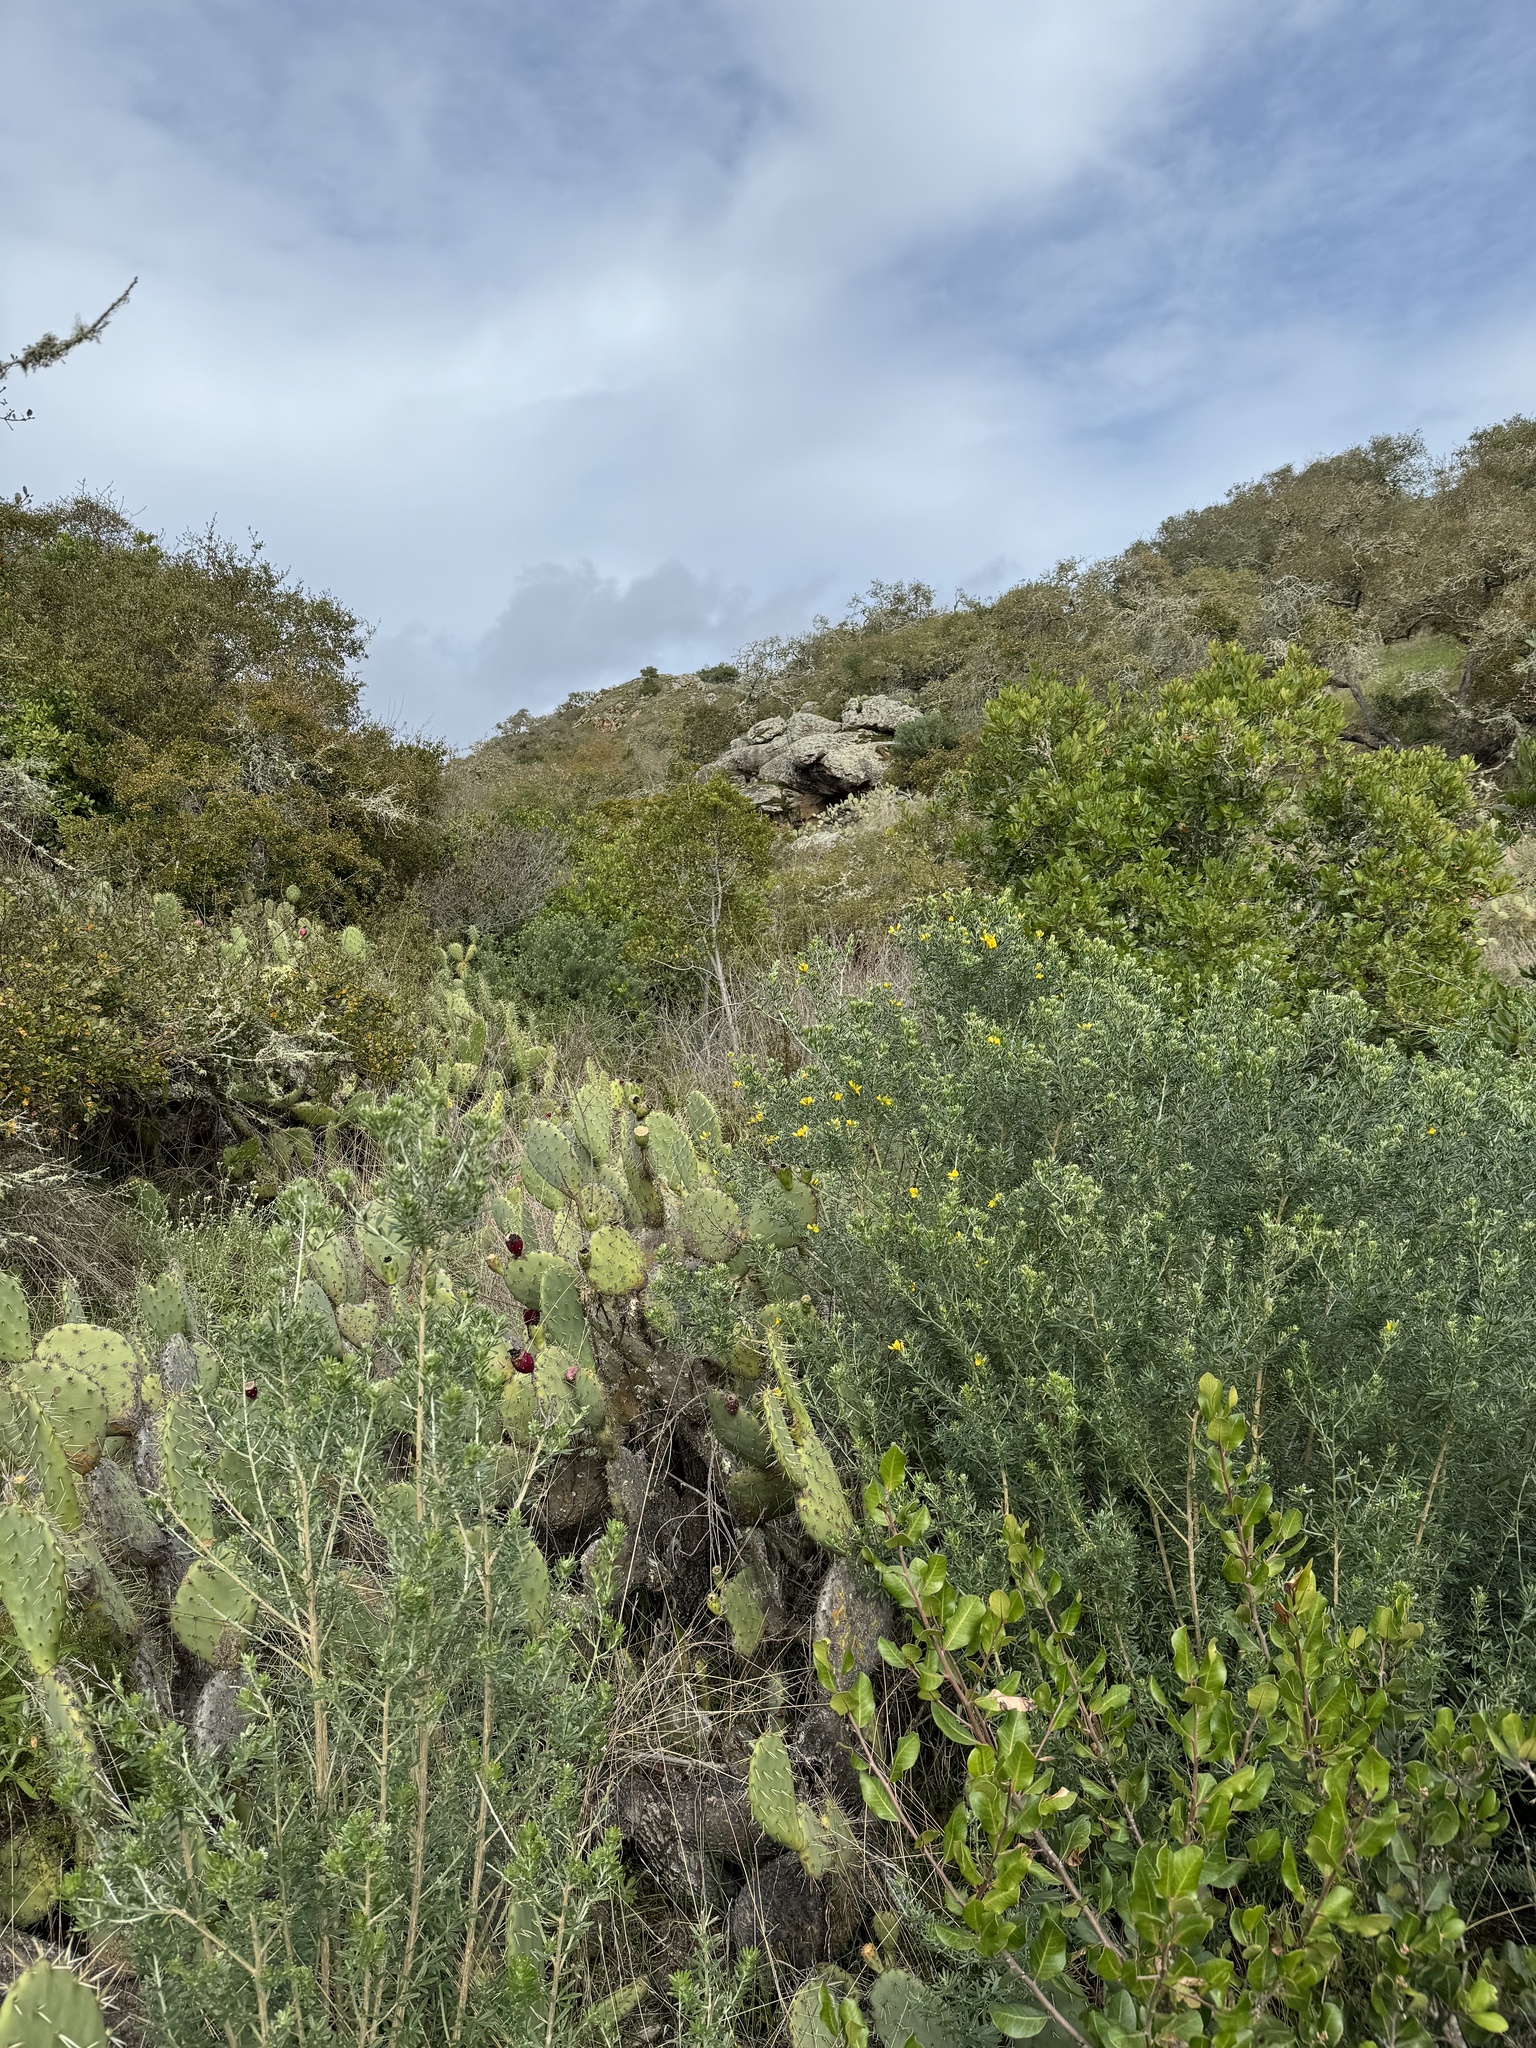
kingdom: Plantae
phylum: Tracheophyta
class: Magnoliopsida
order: Fabales
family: Fabaceae
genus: Genista
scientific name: Genista linifolia
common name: Mediterranean broom
